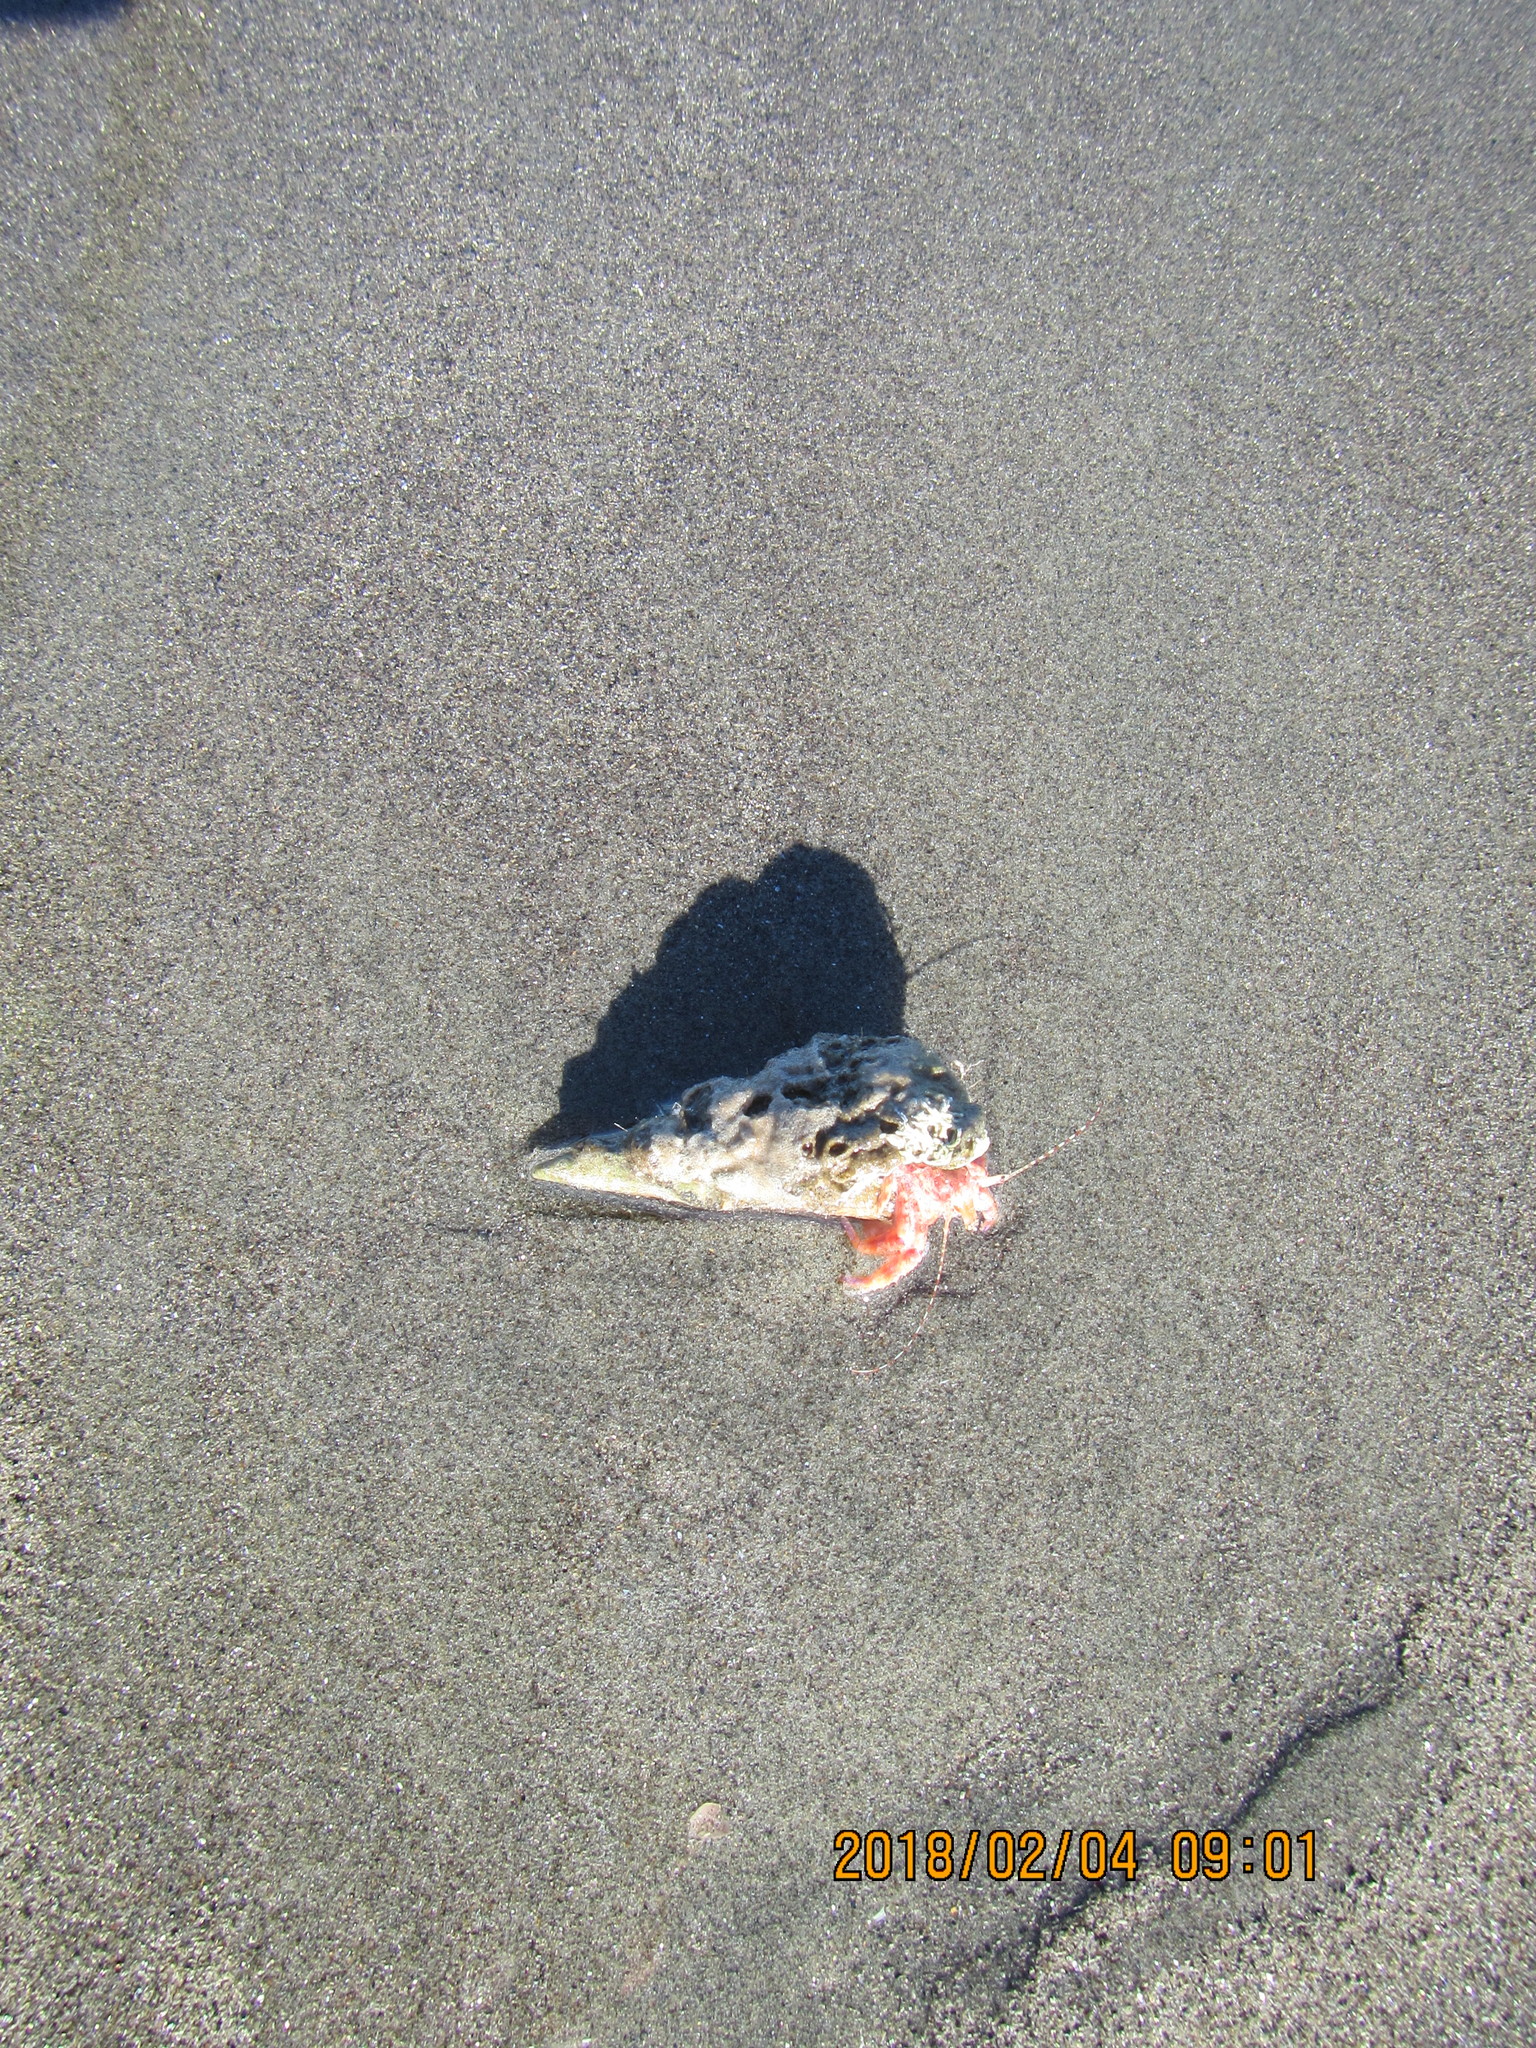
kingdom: Animalia
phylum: Mollusca
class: Gastropoda
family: Turritellidae
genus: Maoricolpus
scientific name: Maoricolpus roseus
